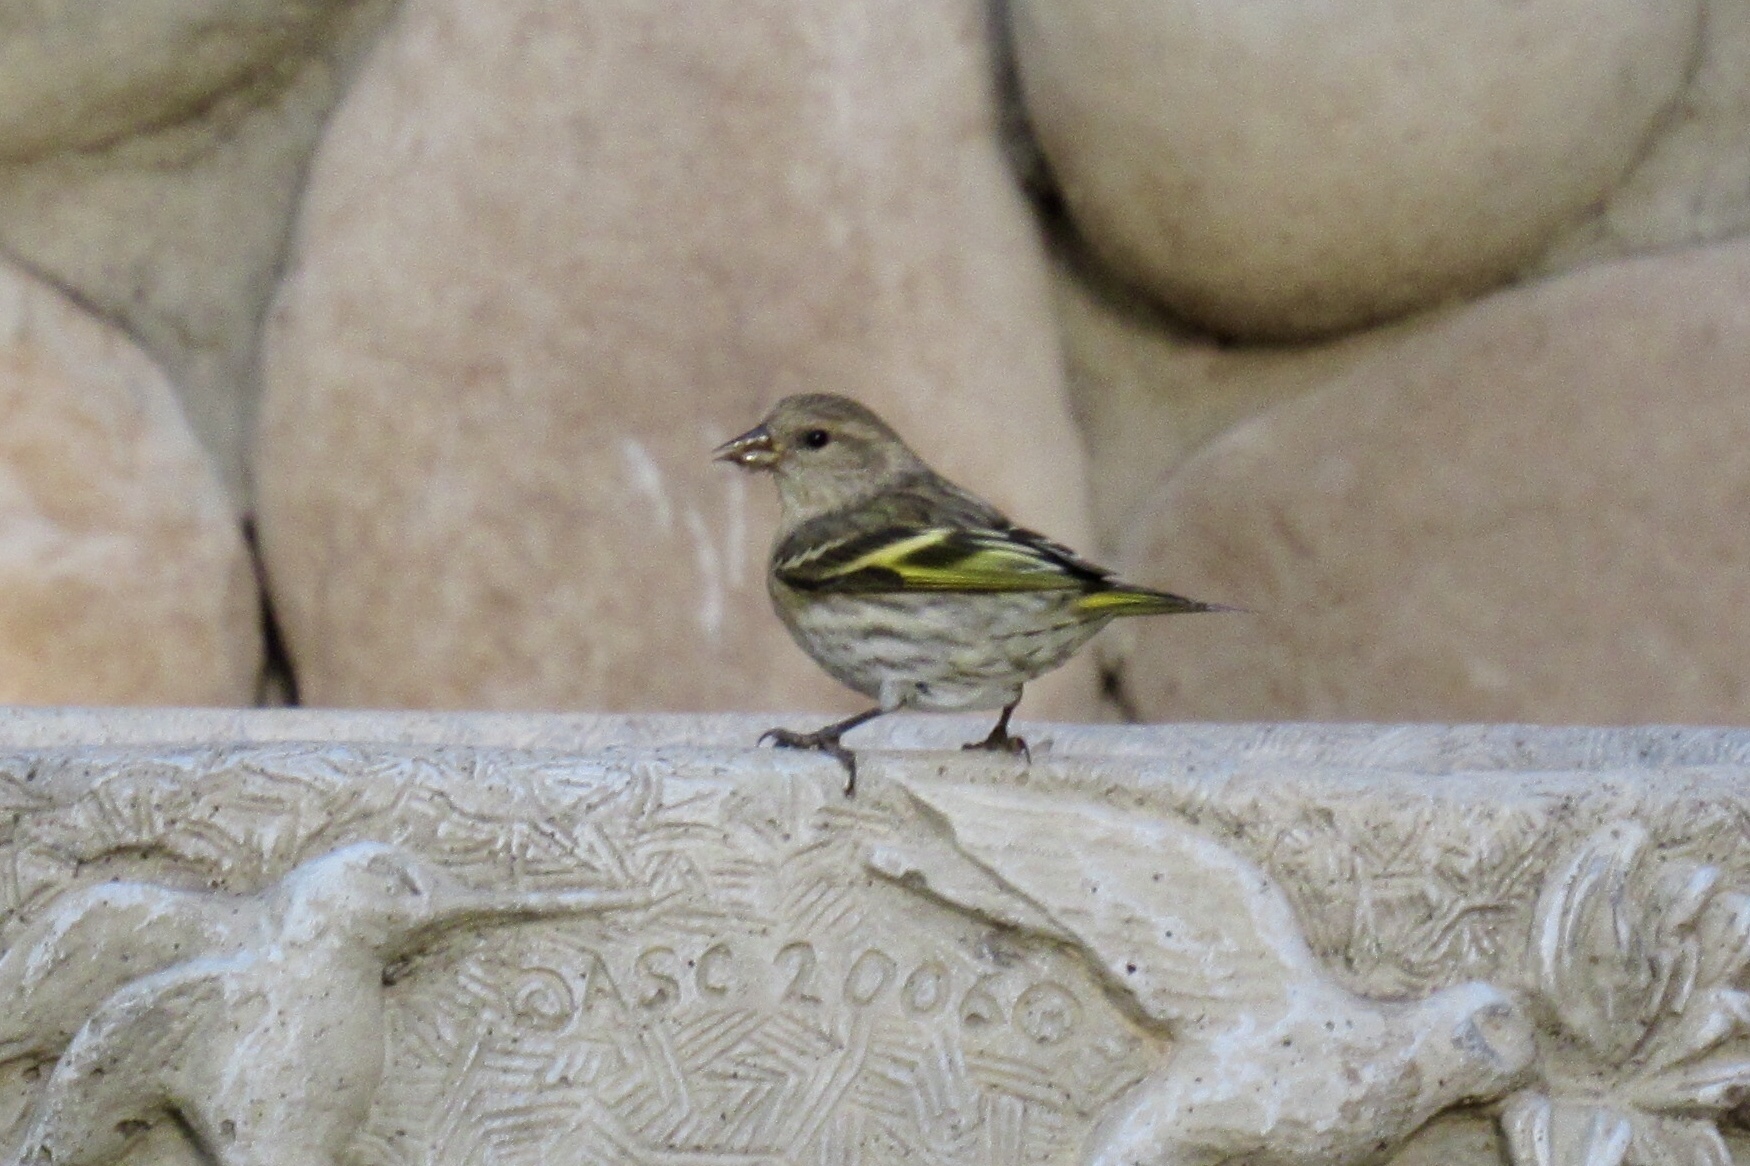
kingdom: Animalia
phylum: Chordata
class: Aves
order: Passeriformes
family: Fringillidae
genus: Spinus
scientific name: Spinus pinus
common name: Pine siskin
